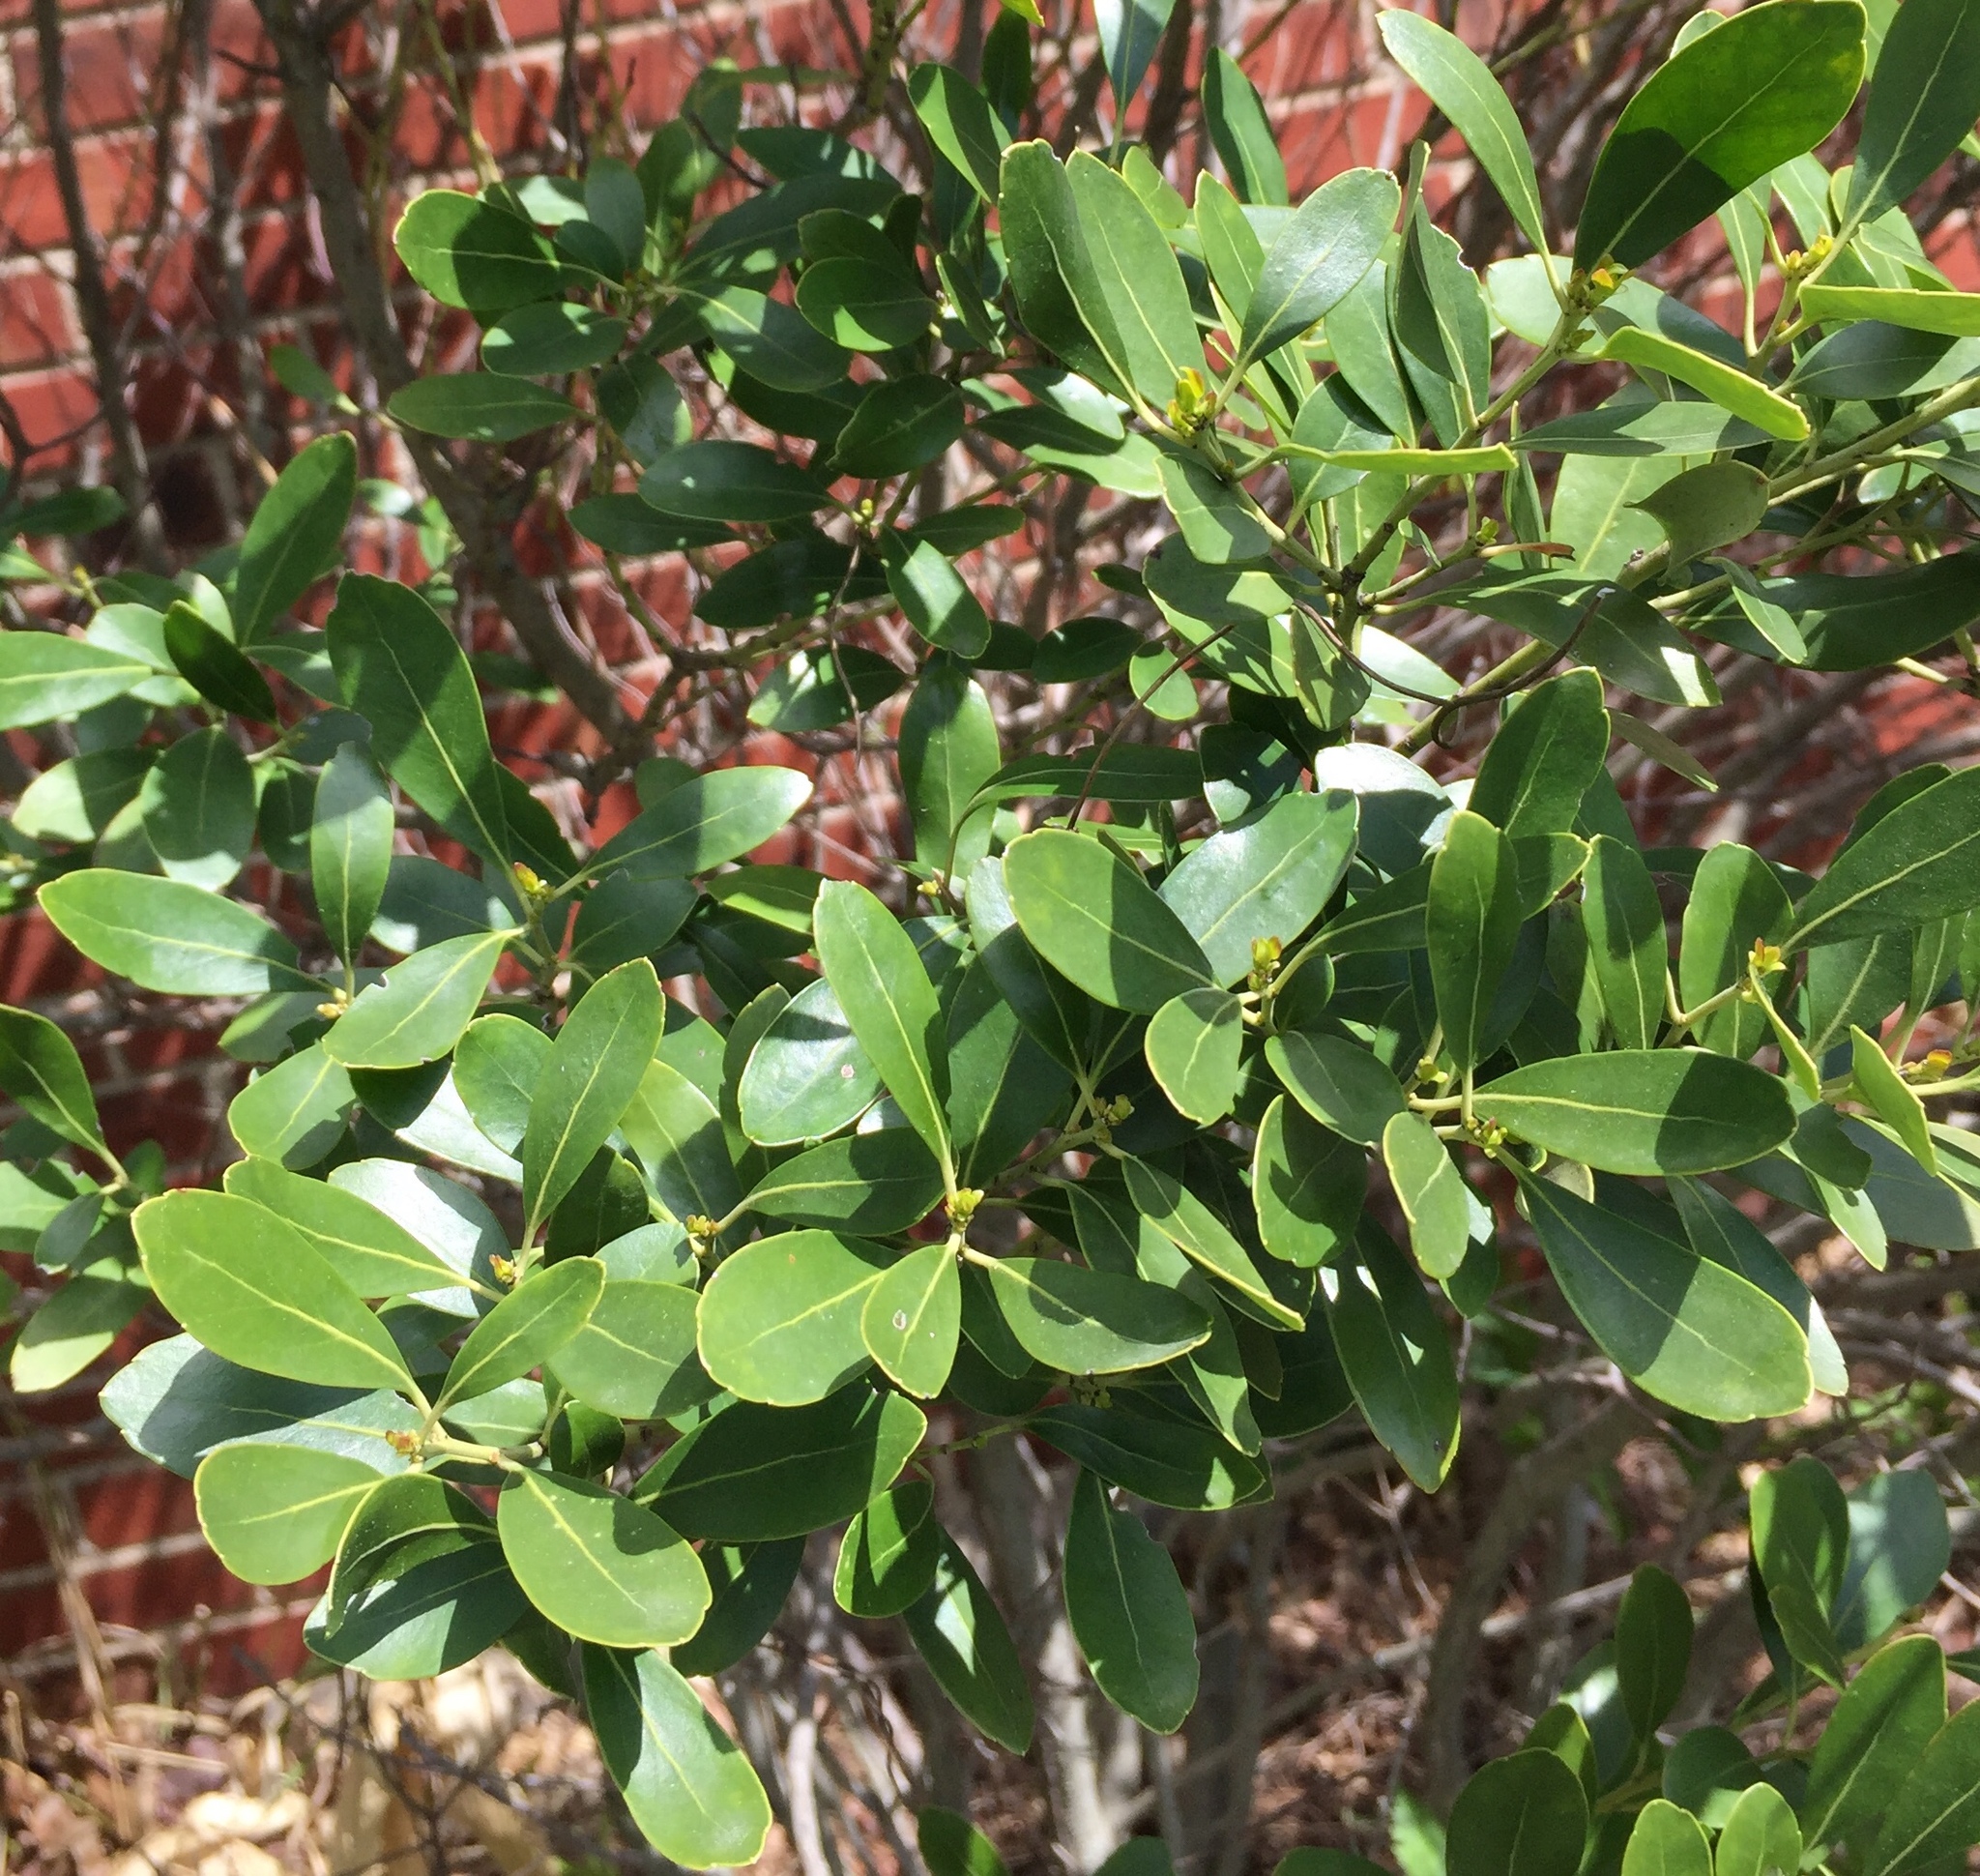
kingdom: Plantae
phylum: Tracheophyta
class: Magnoliopsida
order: Aquifoliales
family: Aquifoliaceae
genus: Ilex
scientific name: Ilex glabra
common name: Bitter gallberry
